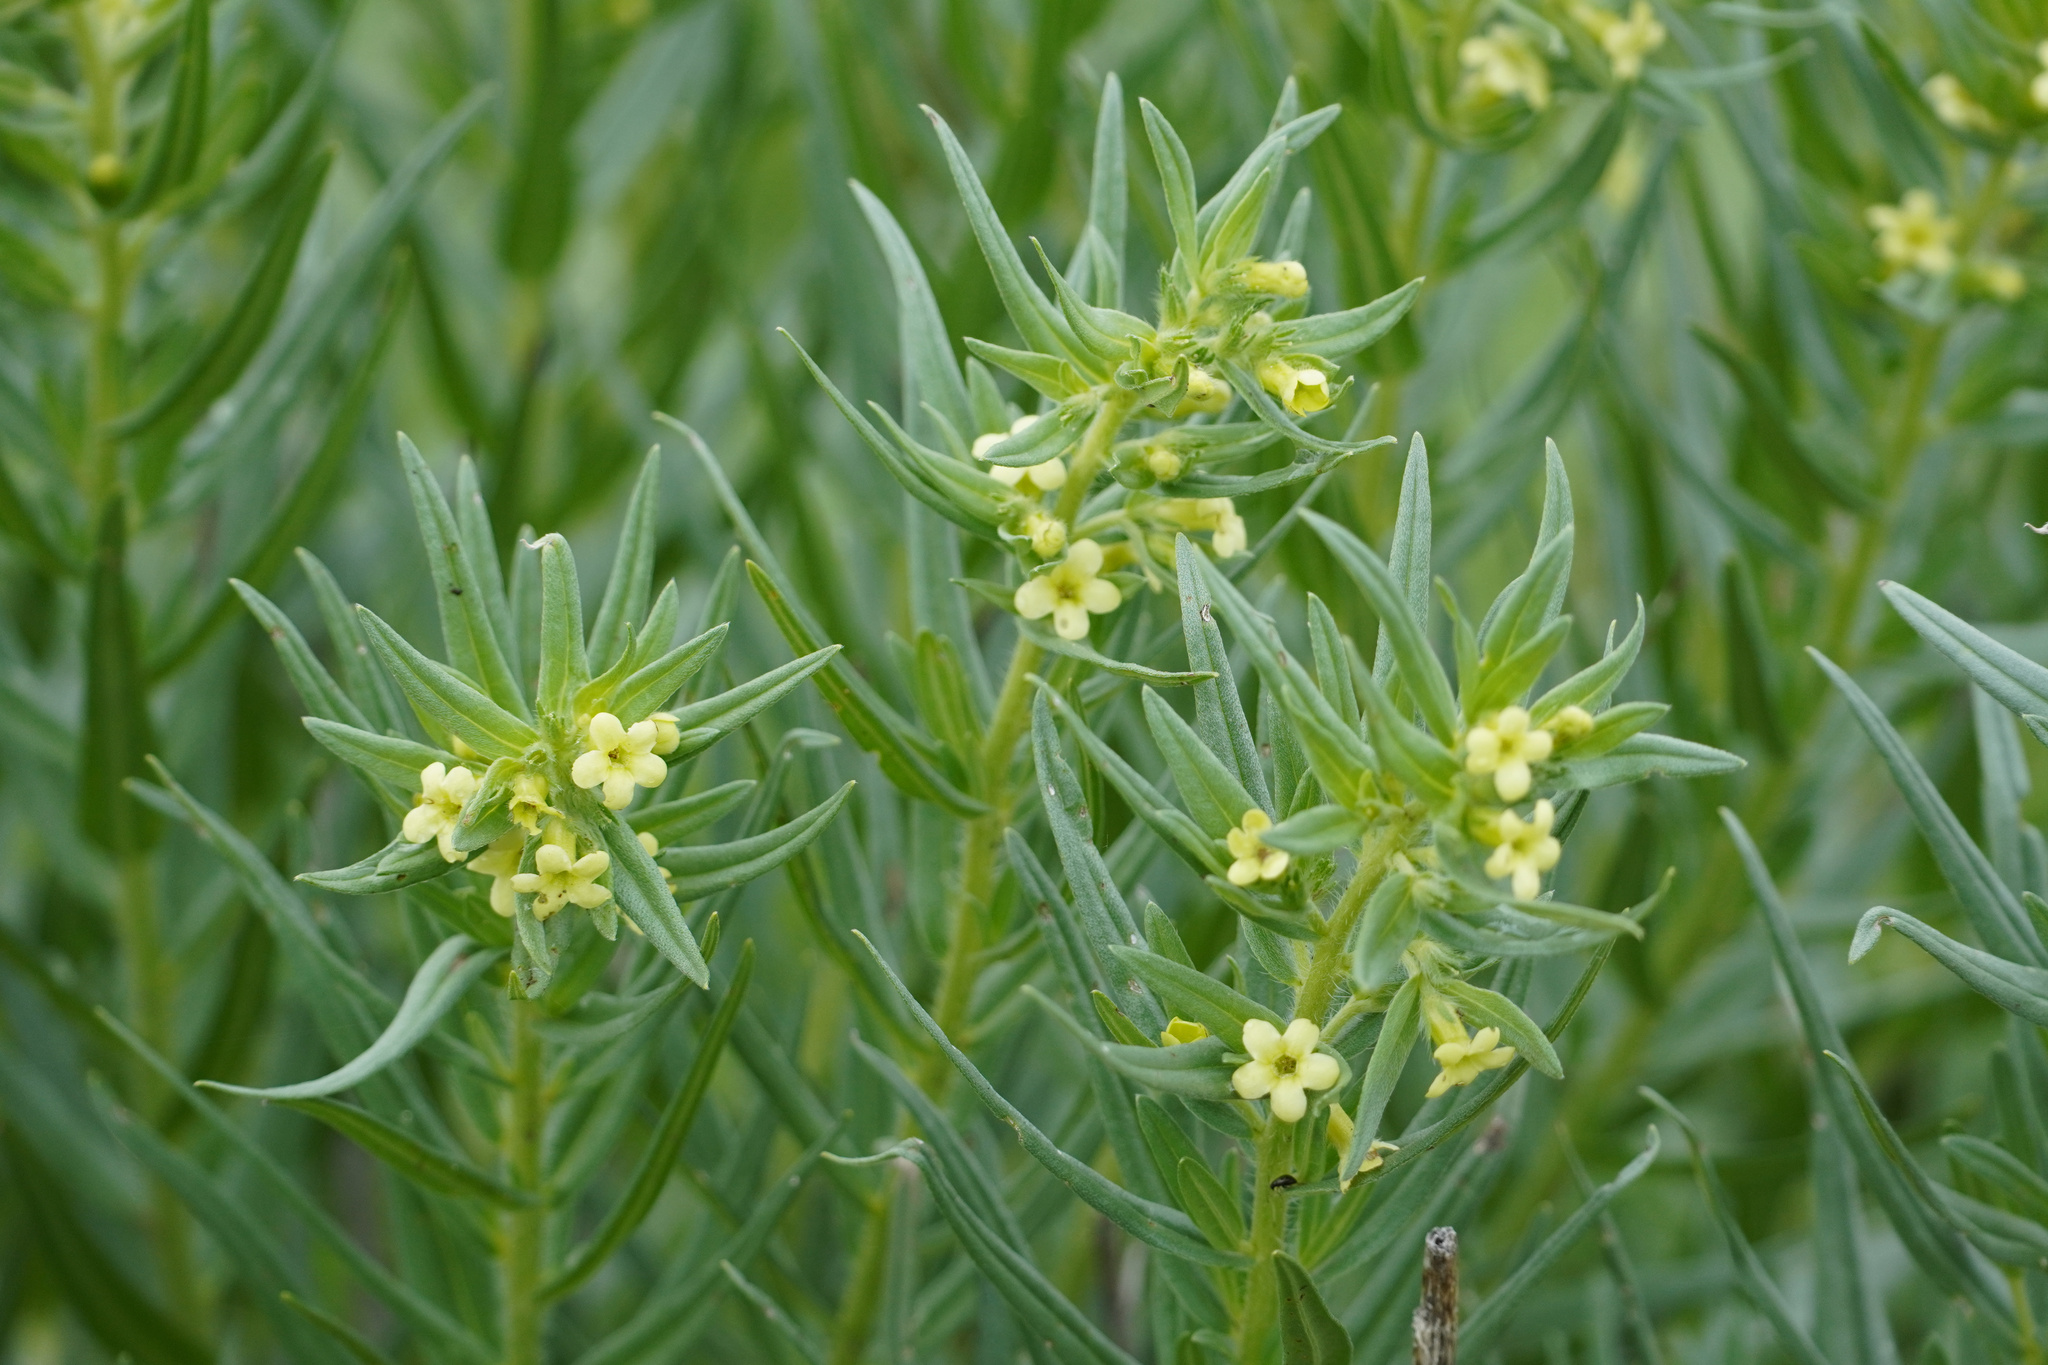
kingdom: Plantae
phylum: Tracheophyta
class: Magnoliopsida
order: Boraginales
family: Boraginaceae
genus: Lithospermum
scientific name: Lithospermum ruderale
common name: Western gromwell
